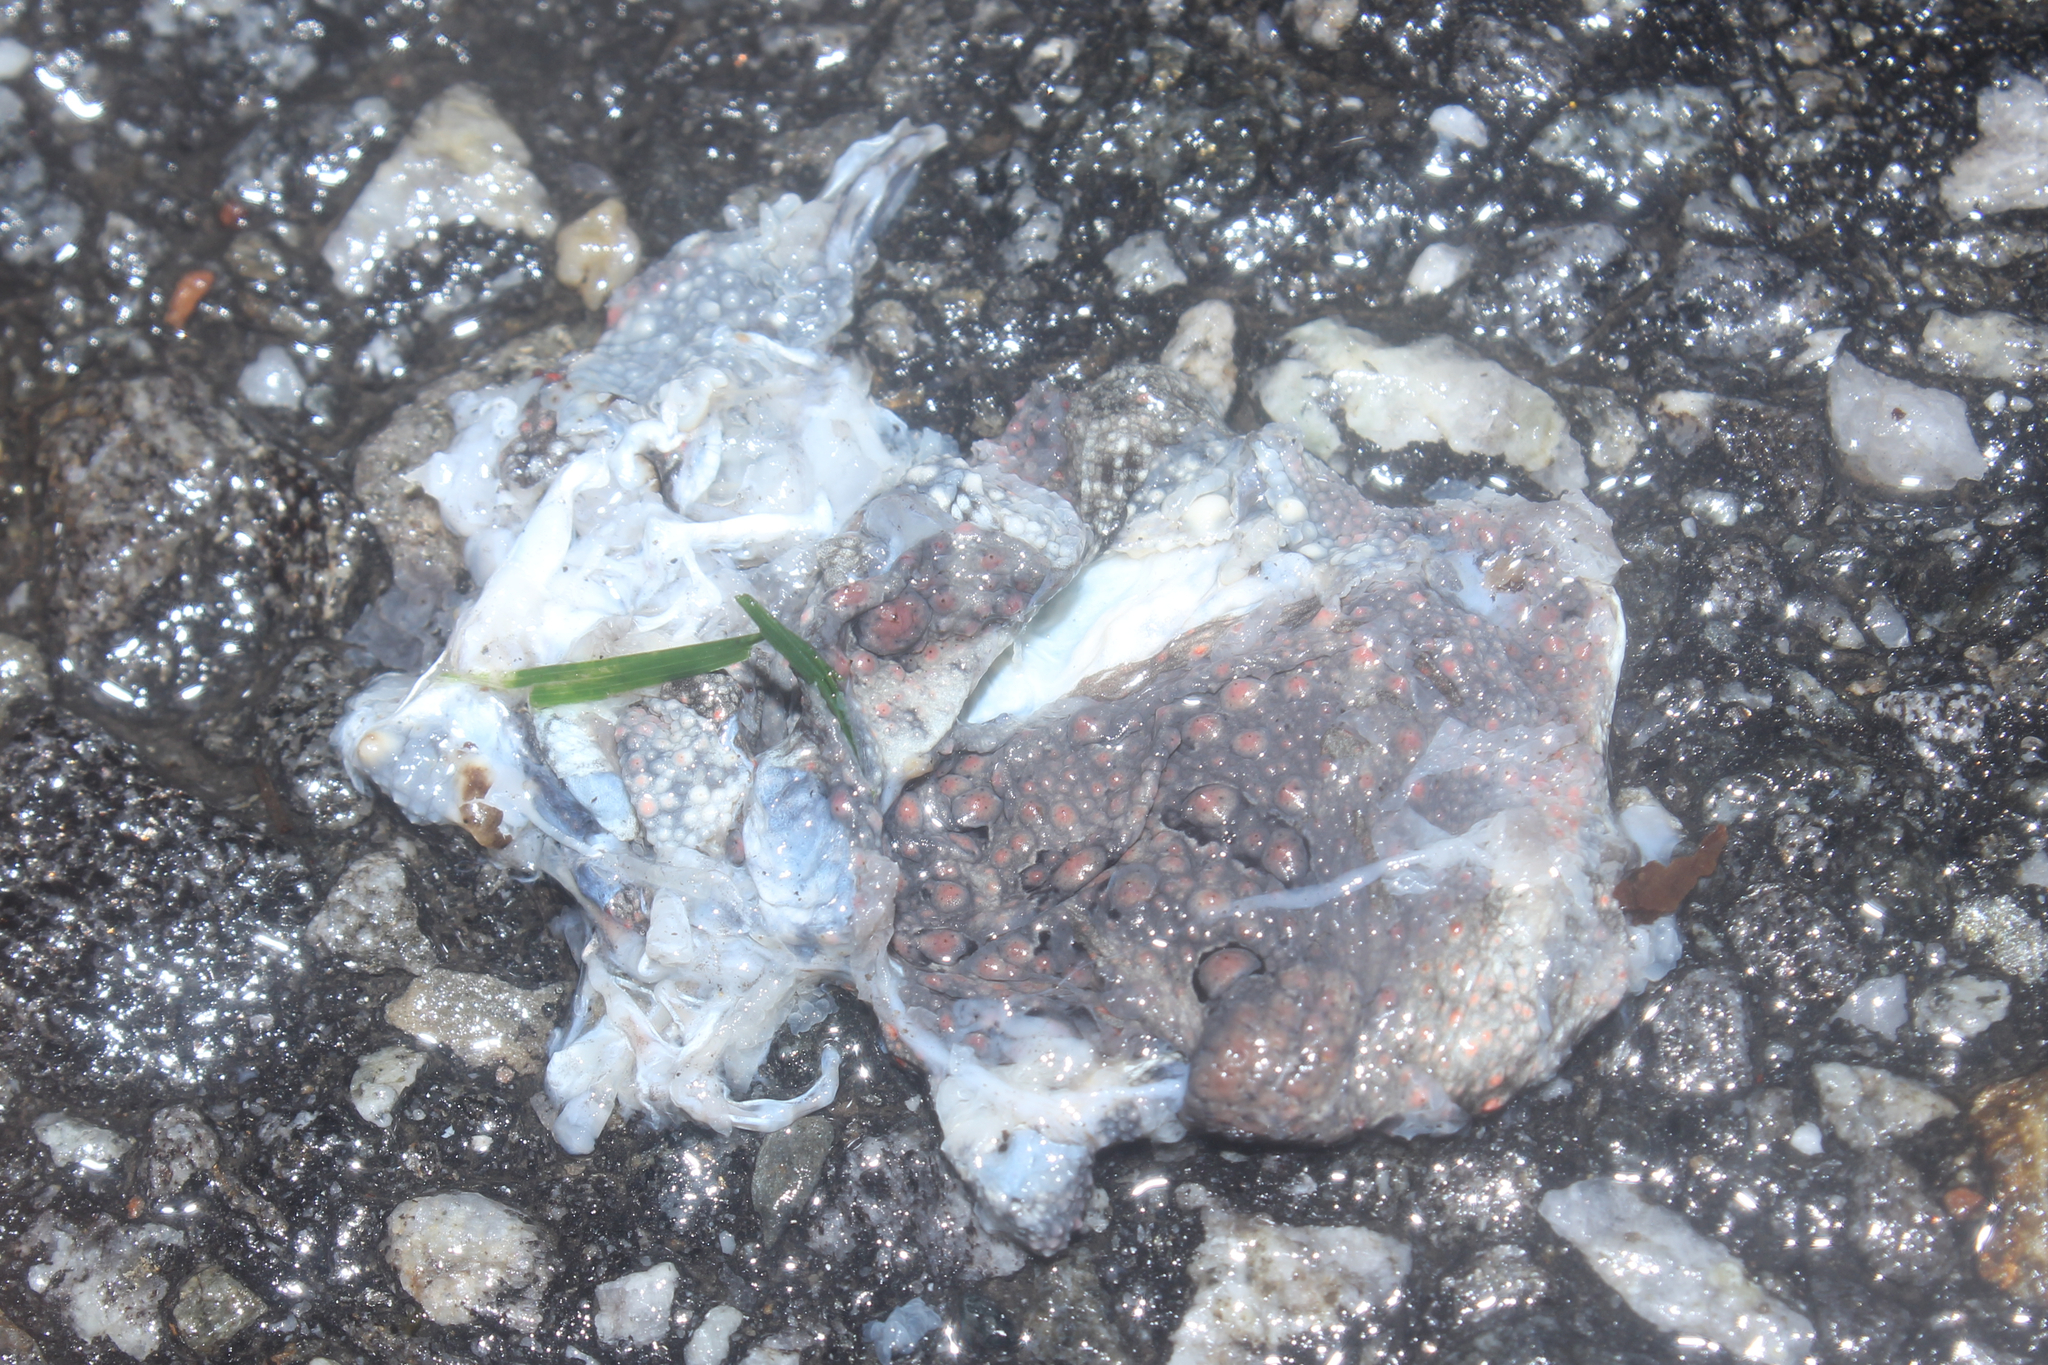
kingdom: Animalia
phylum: Chordata
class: Amphibia
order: Anura
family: Bufonidae
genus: Anaxyrus
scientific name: Anaxyrus americanus
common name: American toad
